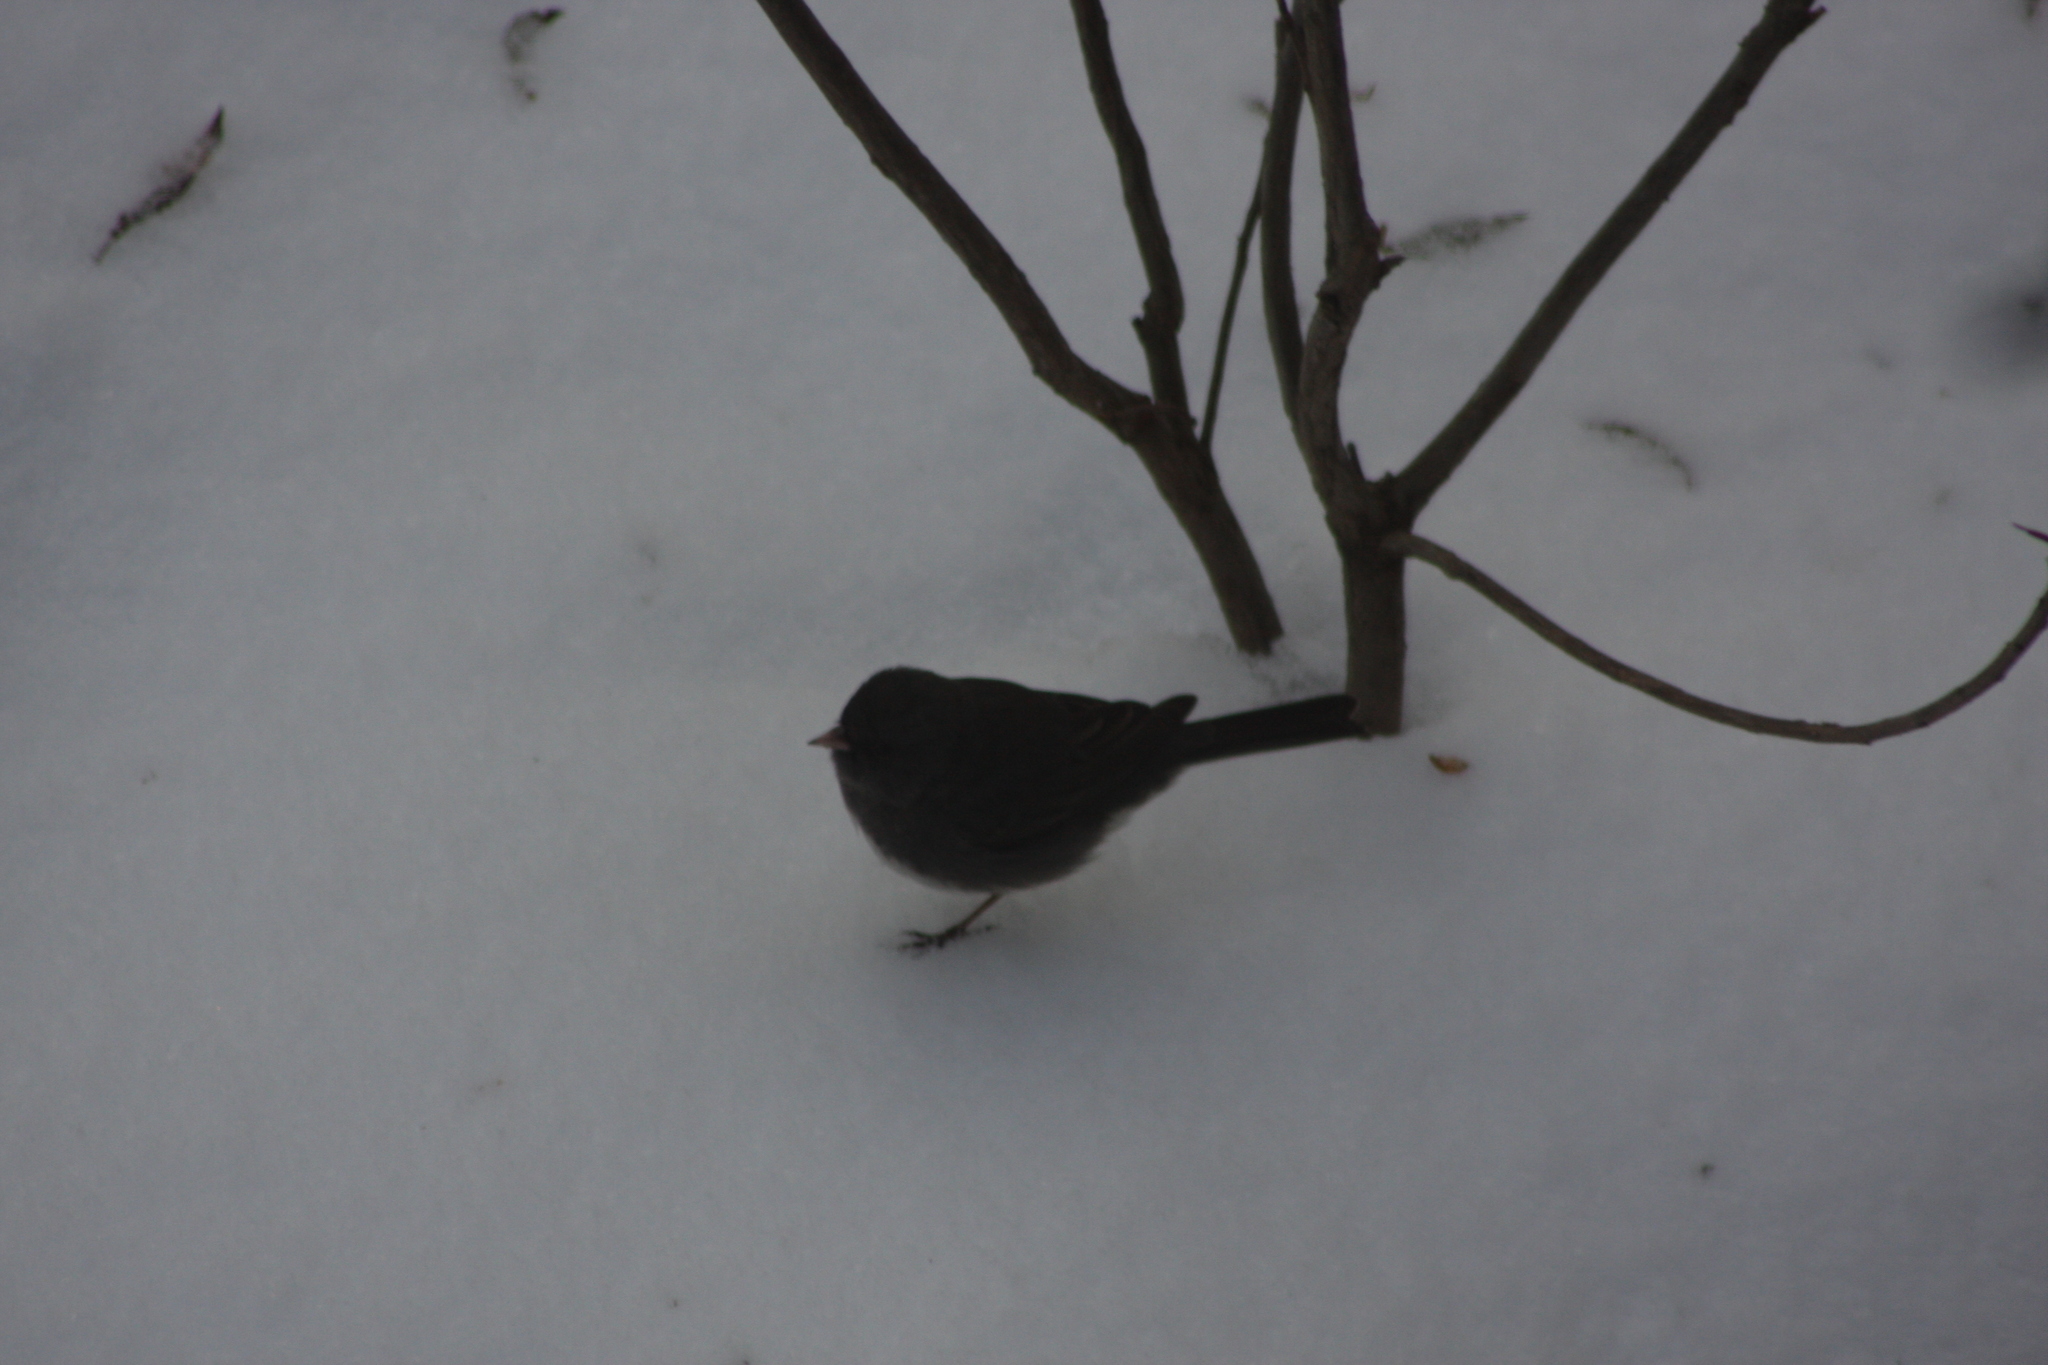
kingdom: Animalia
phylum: Chordata
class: Aves
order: Passeriformes
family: Passerellidae
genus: Junco
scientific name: Junco hyemalis
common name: Dark-eyed junco
